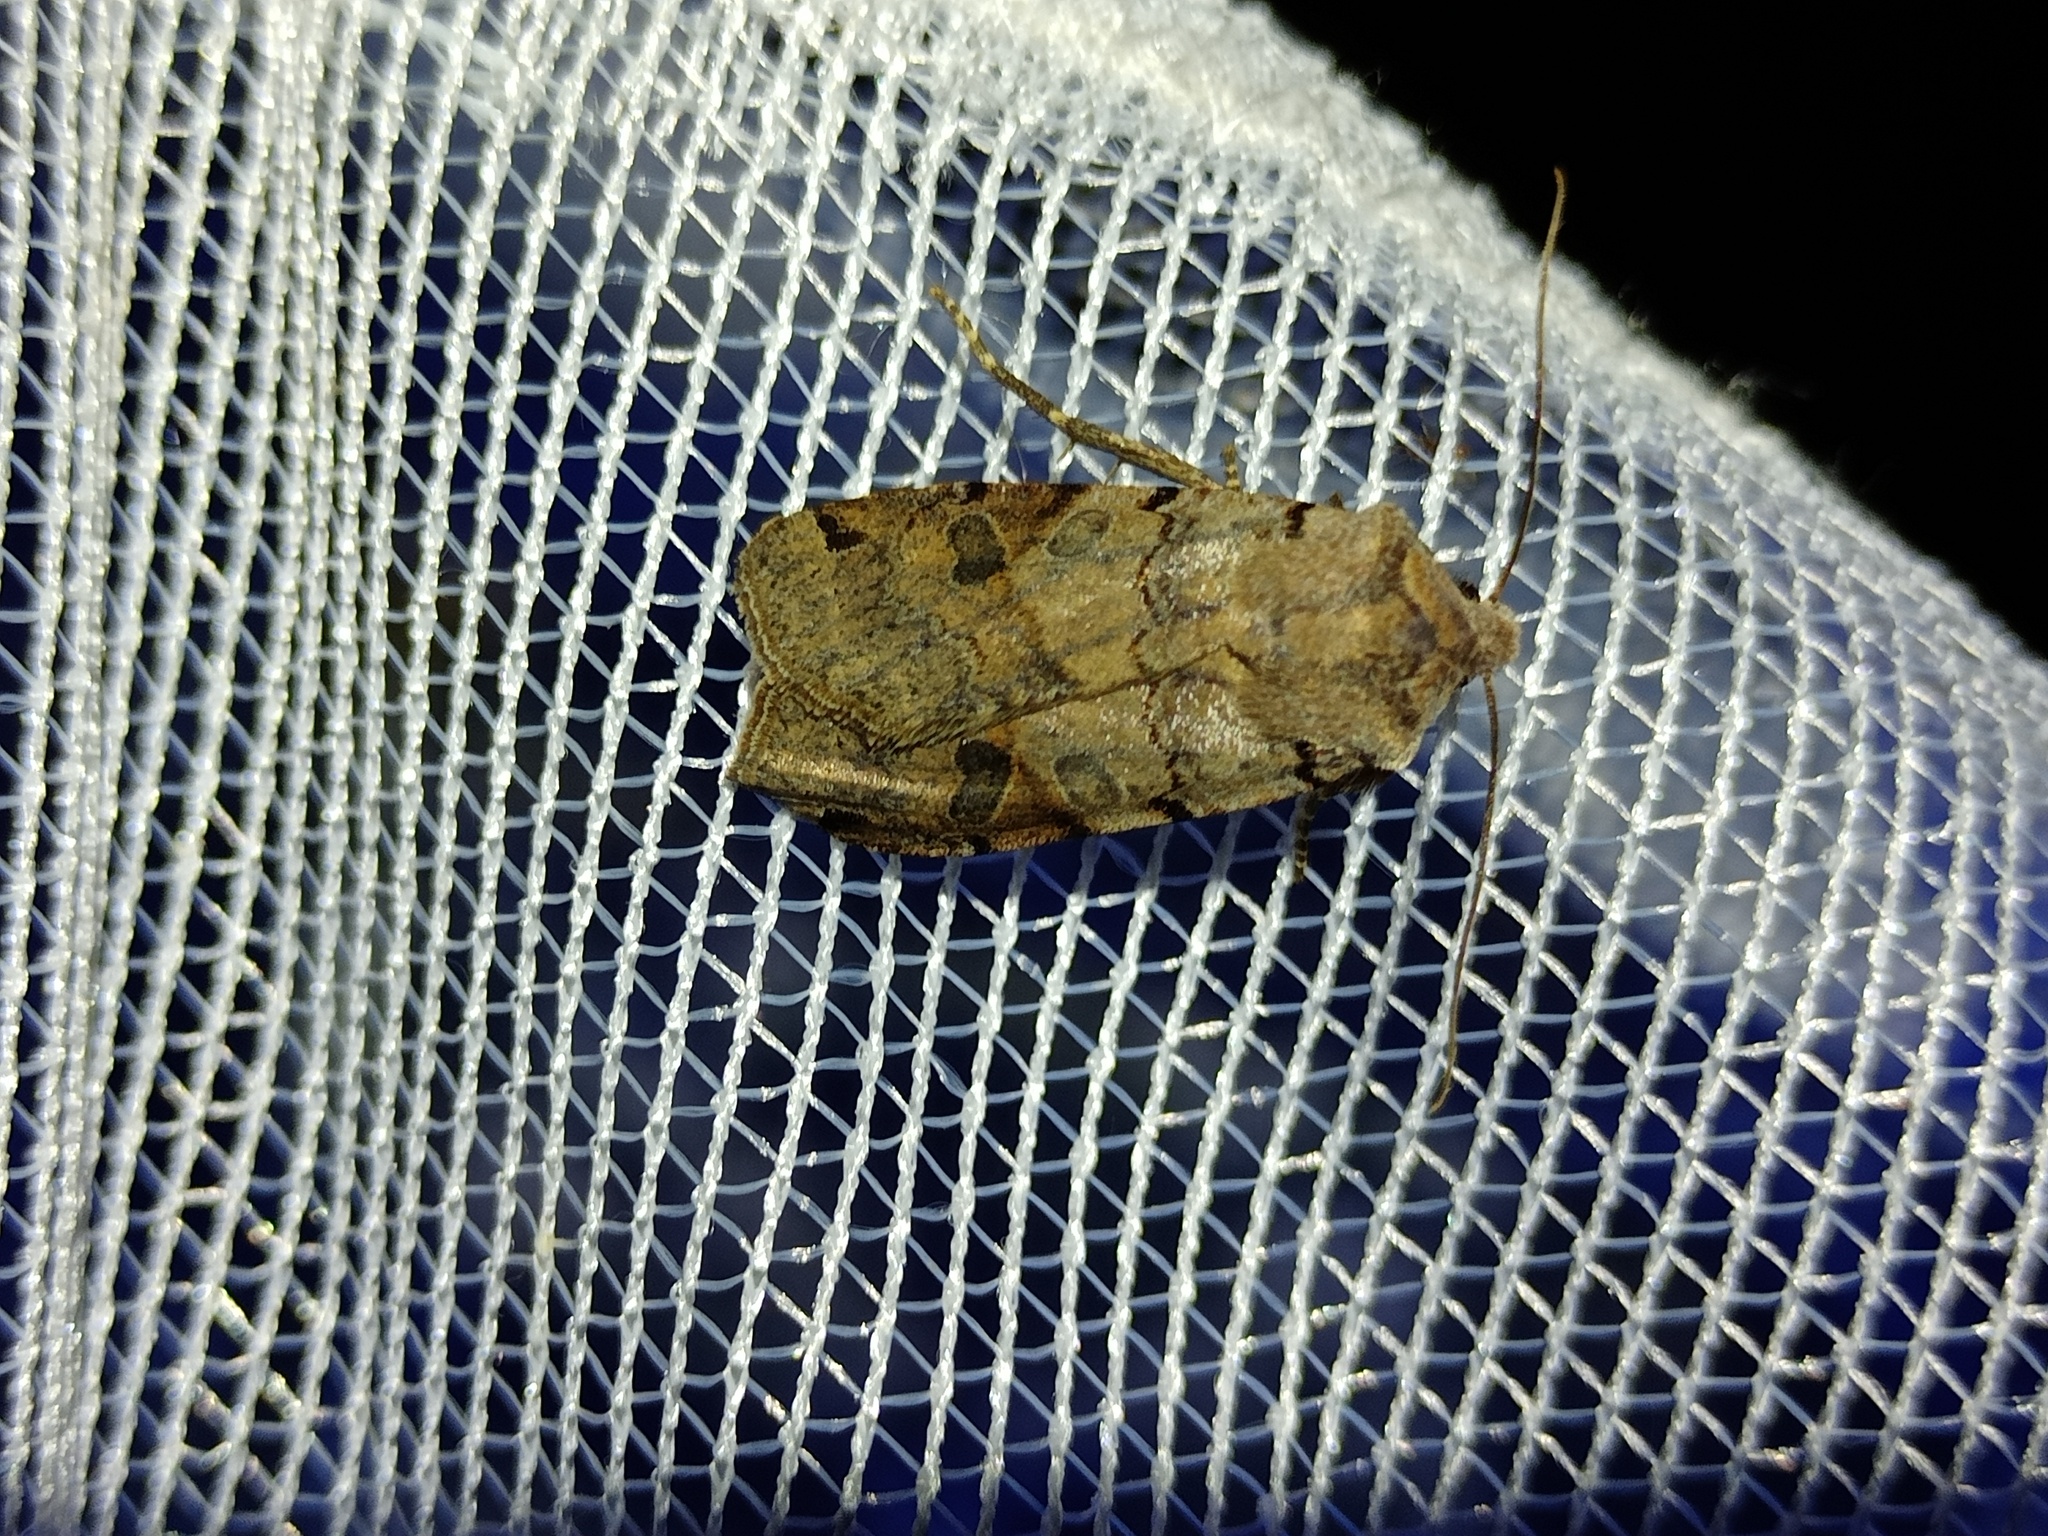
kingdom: Animalia
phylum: Arthropoda
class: Insecta
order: Lepidoptera
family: Noctuidae
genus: Agrochola
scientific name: Agrochola litura
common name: Brown-spot pinion
